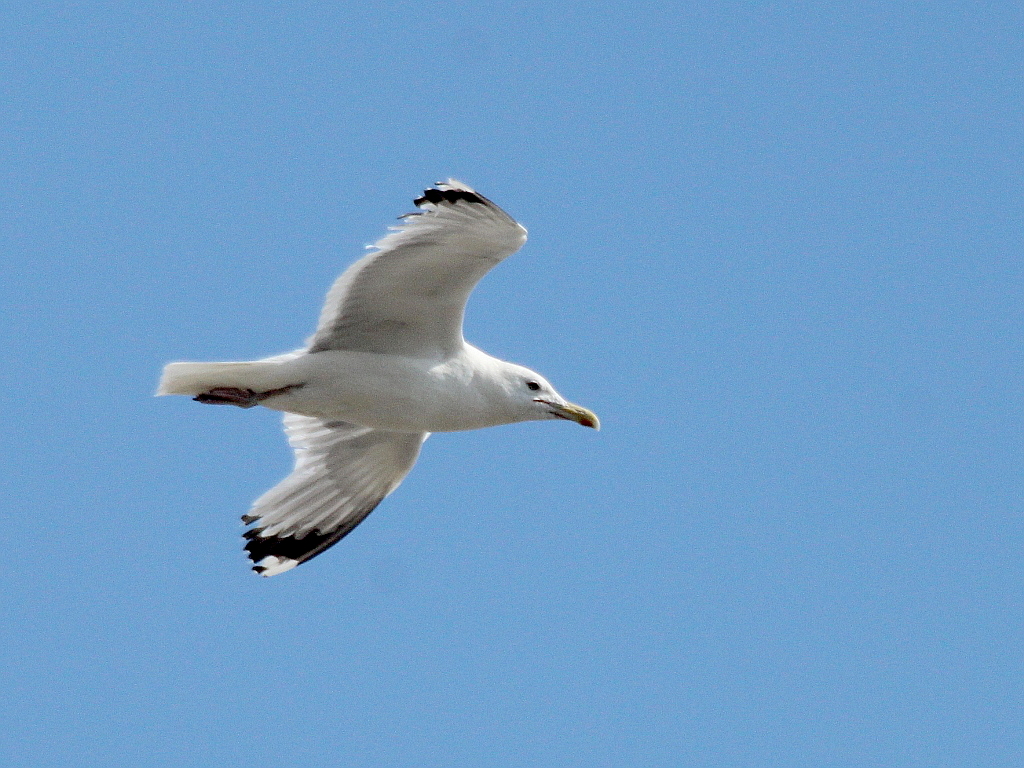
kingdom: Animalia
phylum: Chordata
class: Aves
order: Charadriiformes
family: Laridae
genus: Larus
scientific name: Larus cachinnans
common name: Caspian gull
